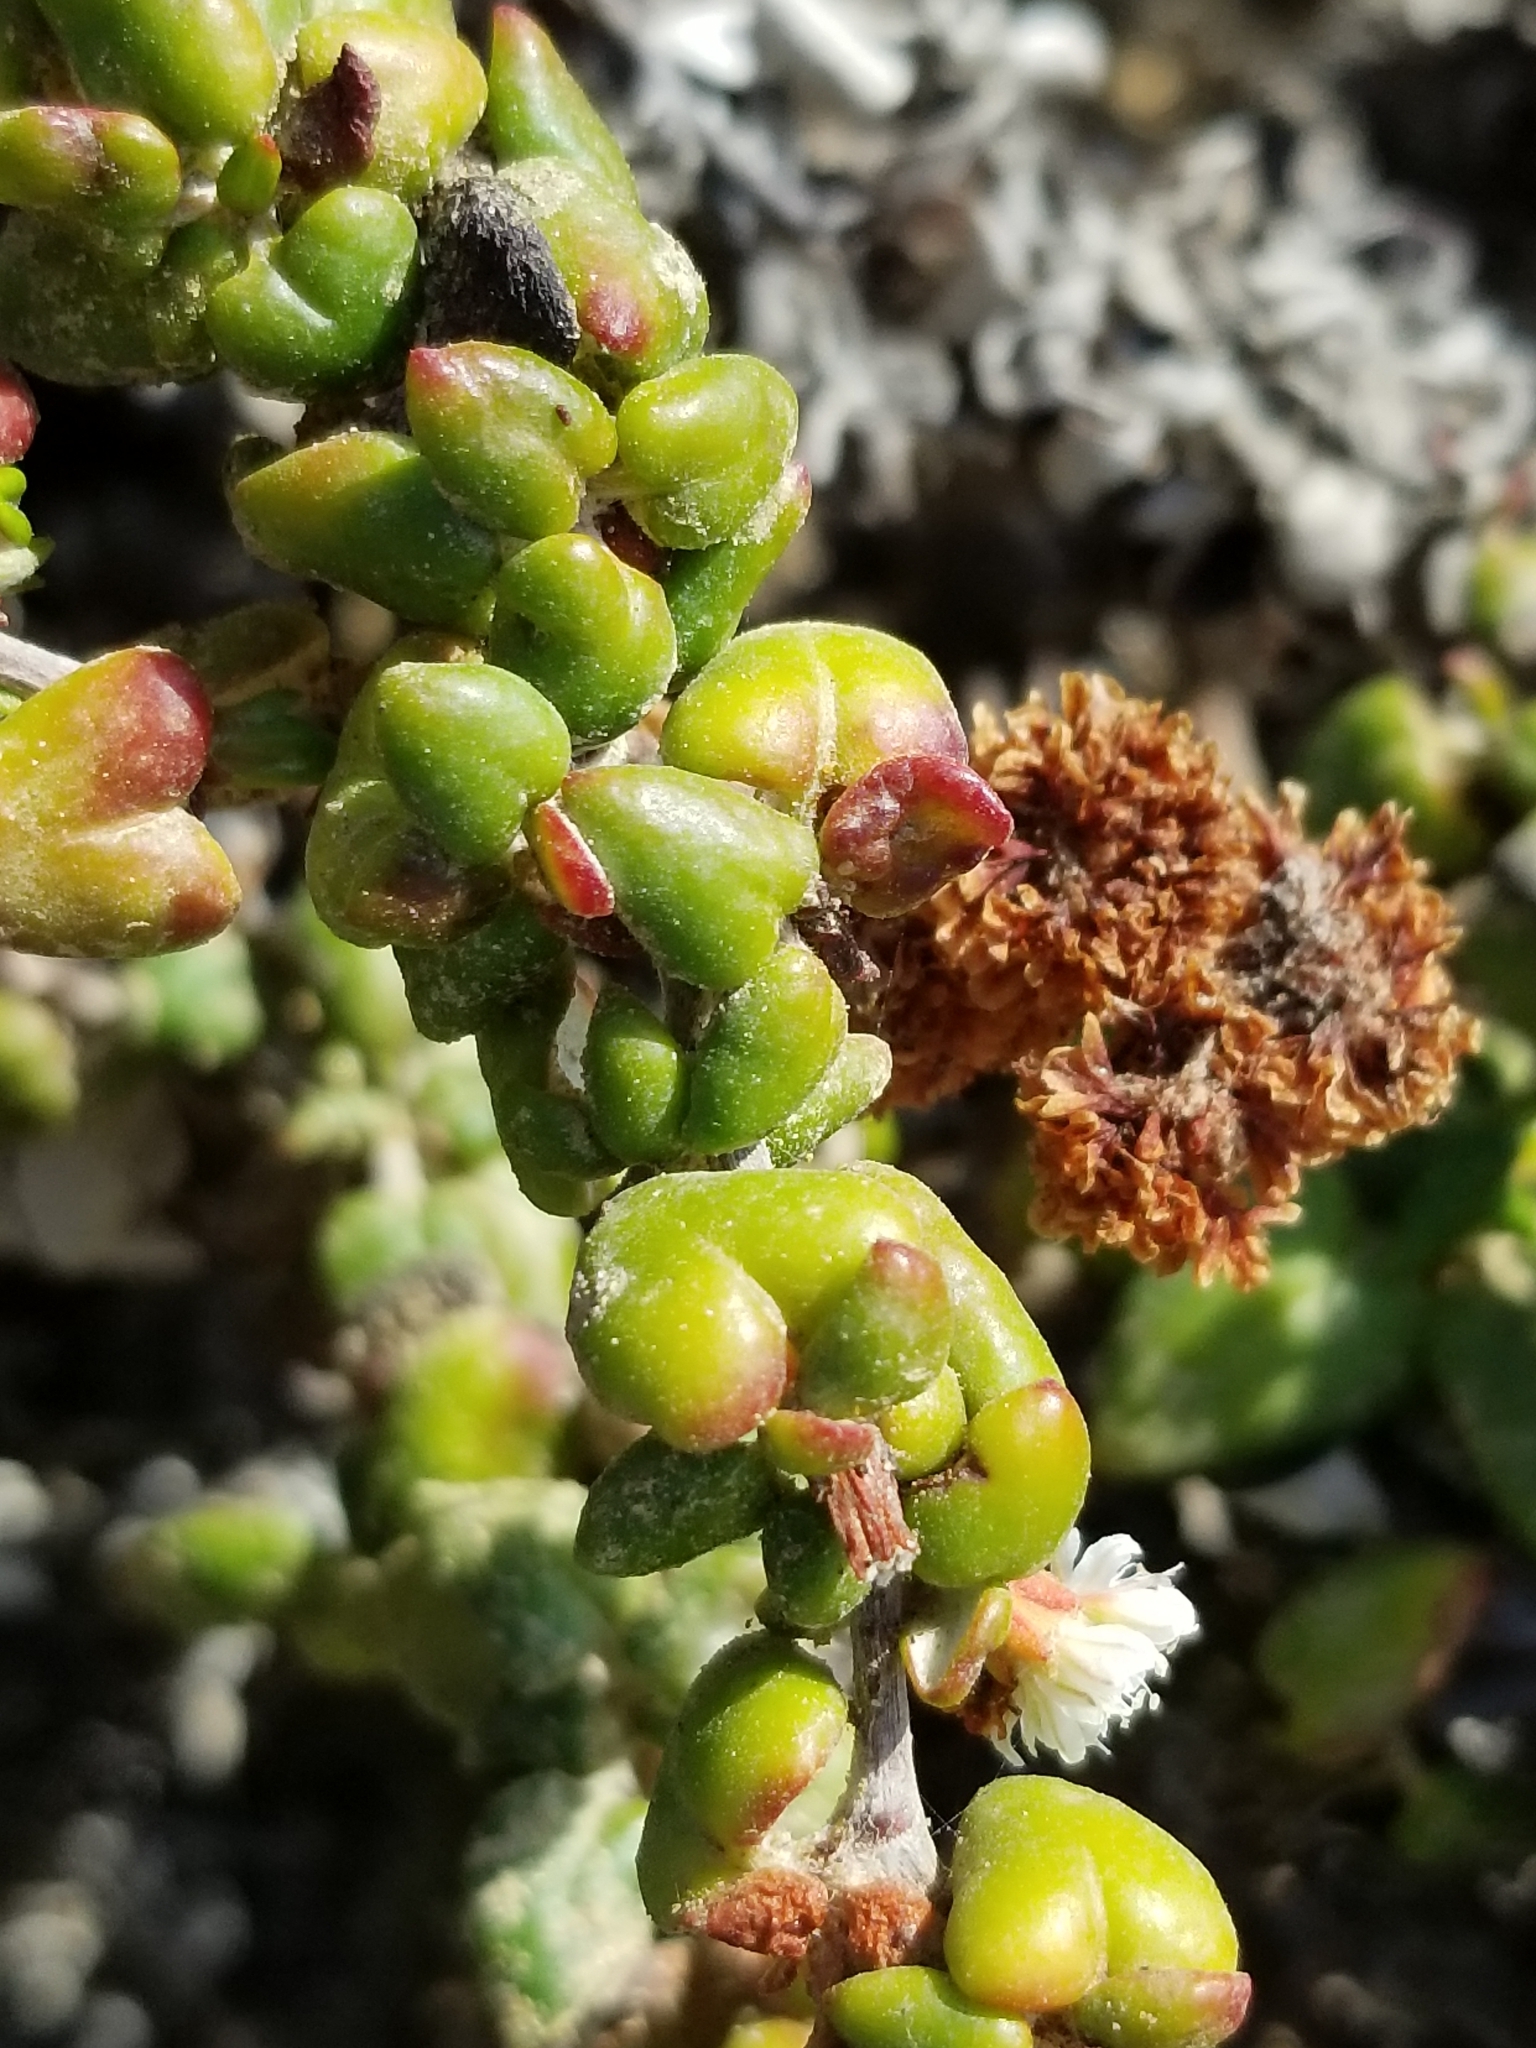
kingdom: Plantae
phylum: Tracheophyta
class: Magnoliopsida
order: Caryophyllales
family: Polygonaceae
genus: Eriogonum
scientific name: Eriogonum parvifolium
